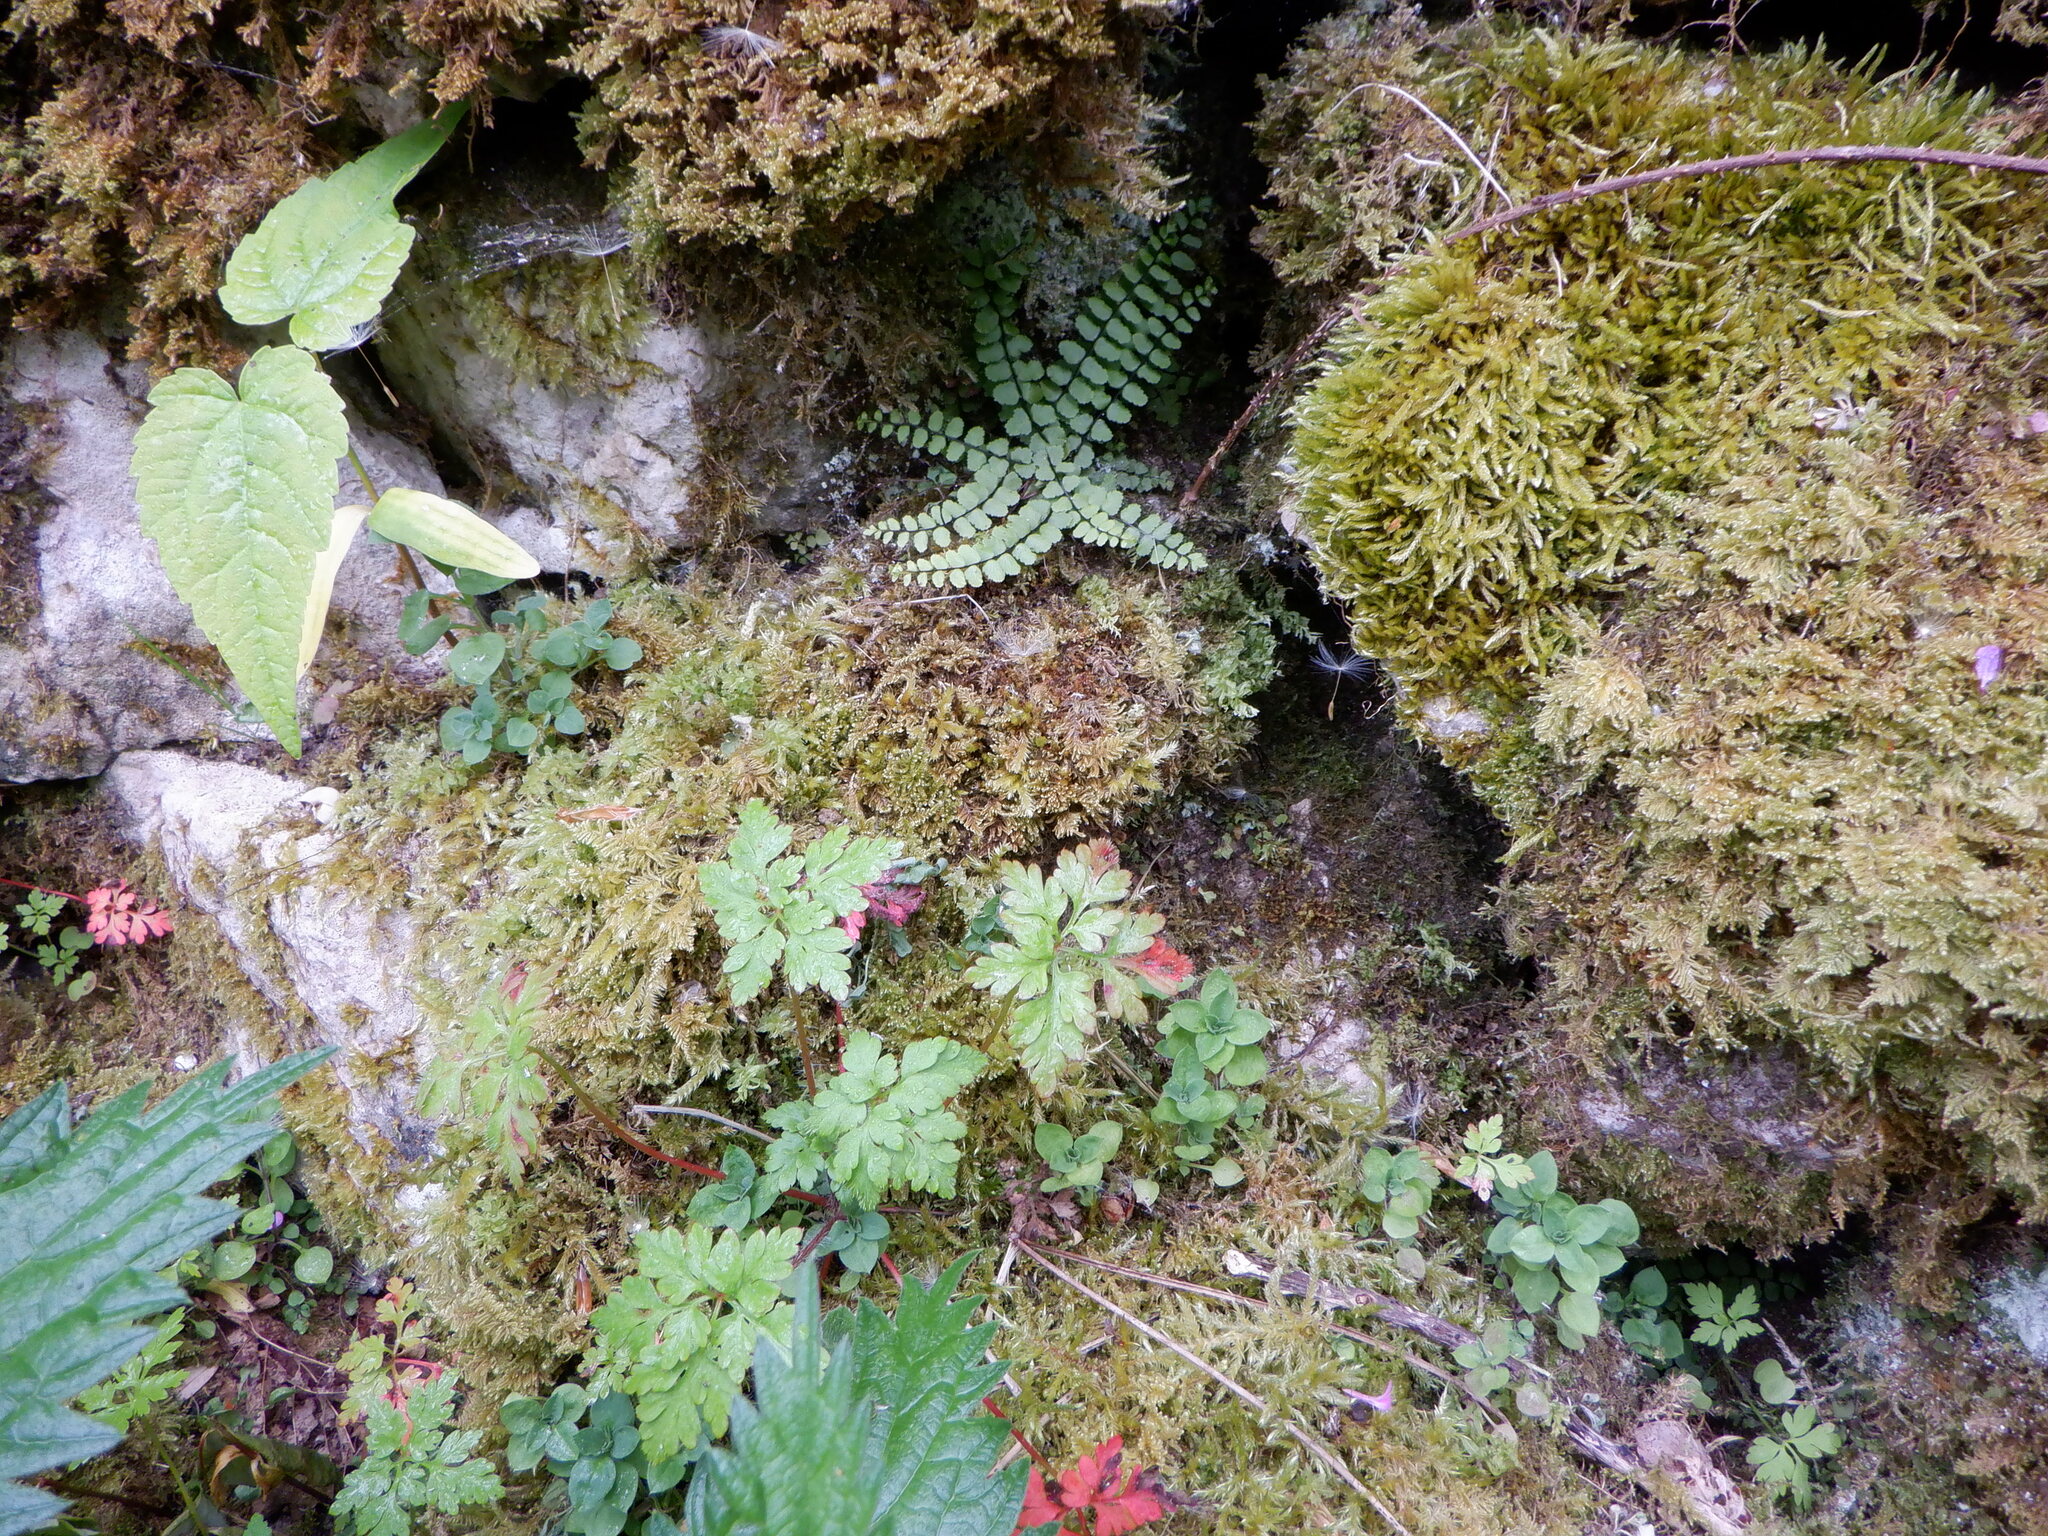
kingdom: Plantae
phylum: Tracheophyta
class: Polypodiopsida
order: Polypodiales
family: Aspleniaceae
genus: Asplenium
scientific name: Asplenium trichomanes
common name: Maidenhair spleenwort
